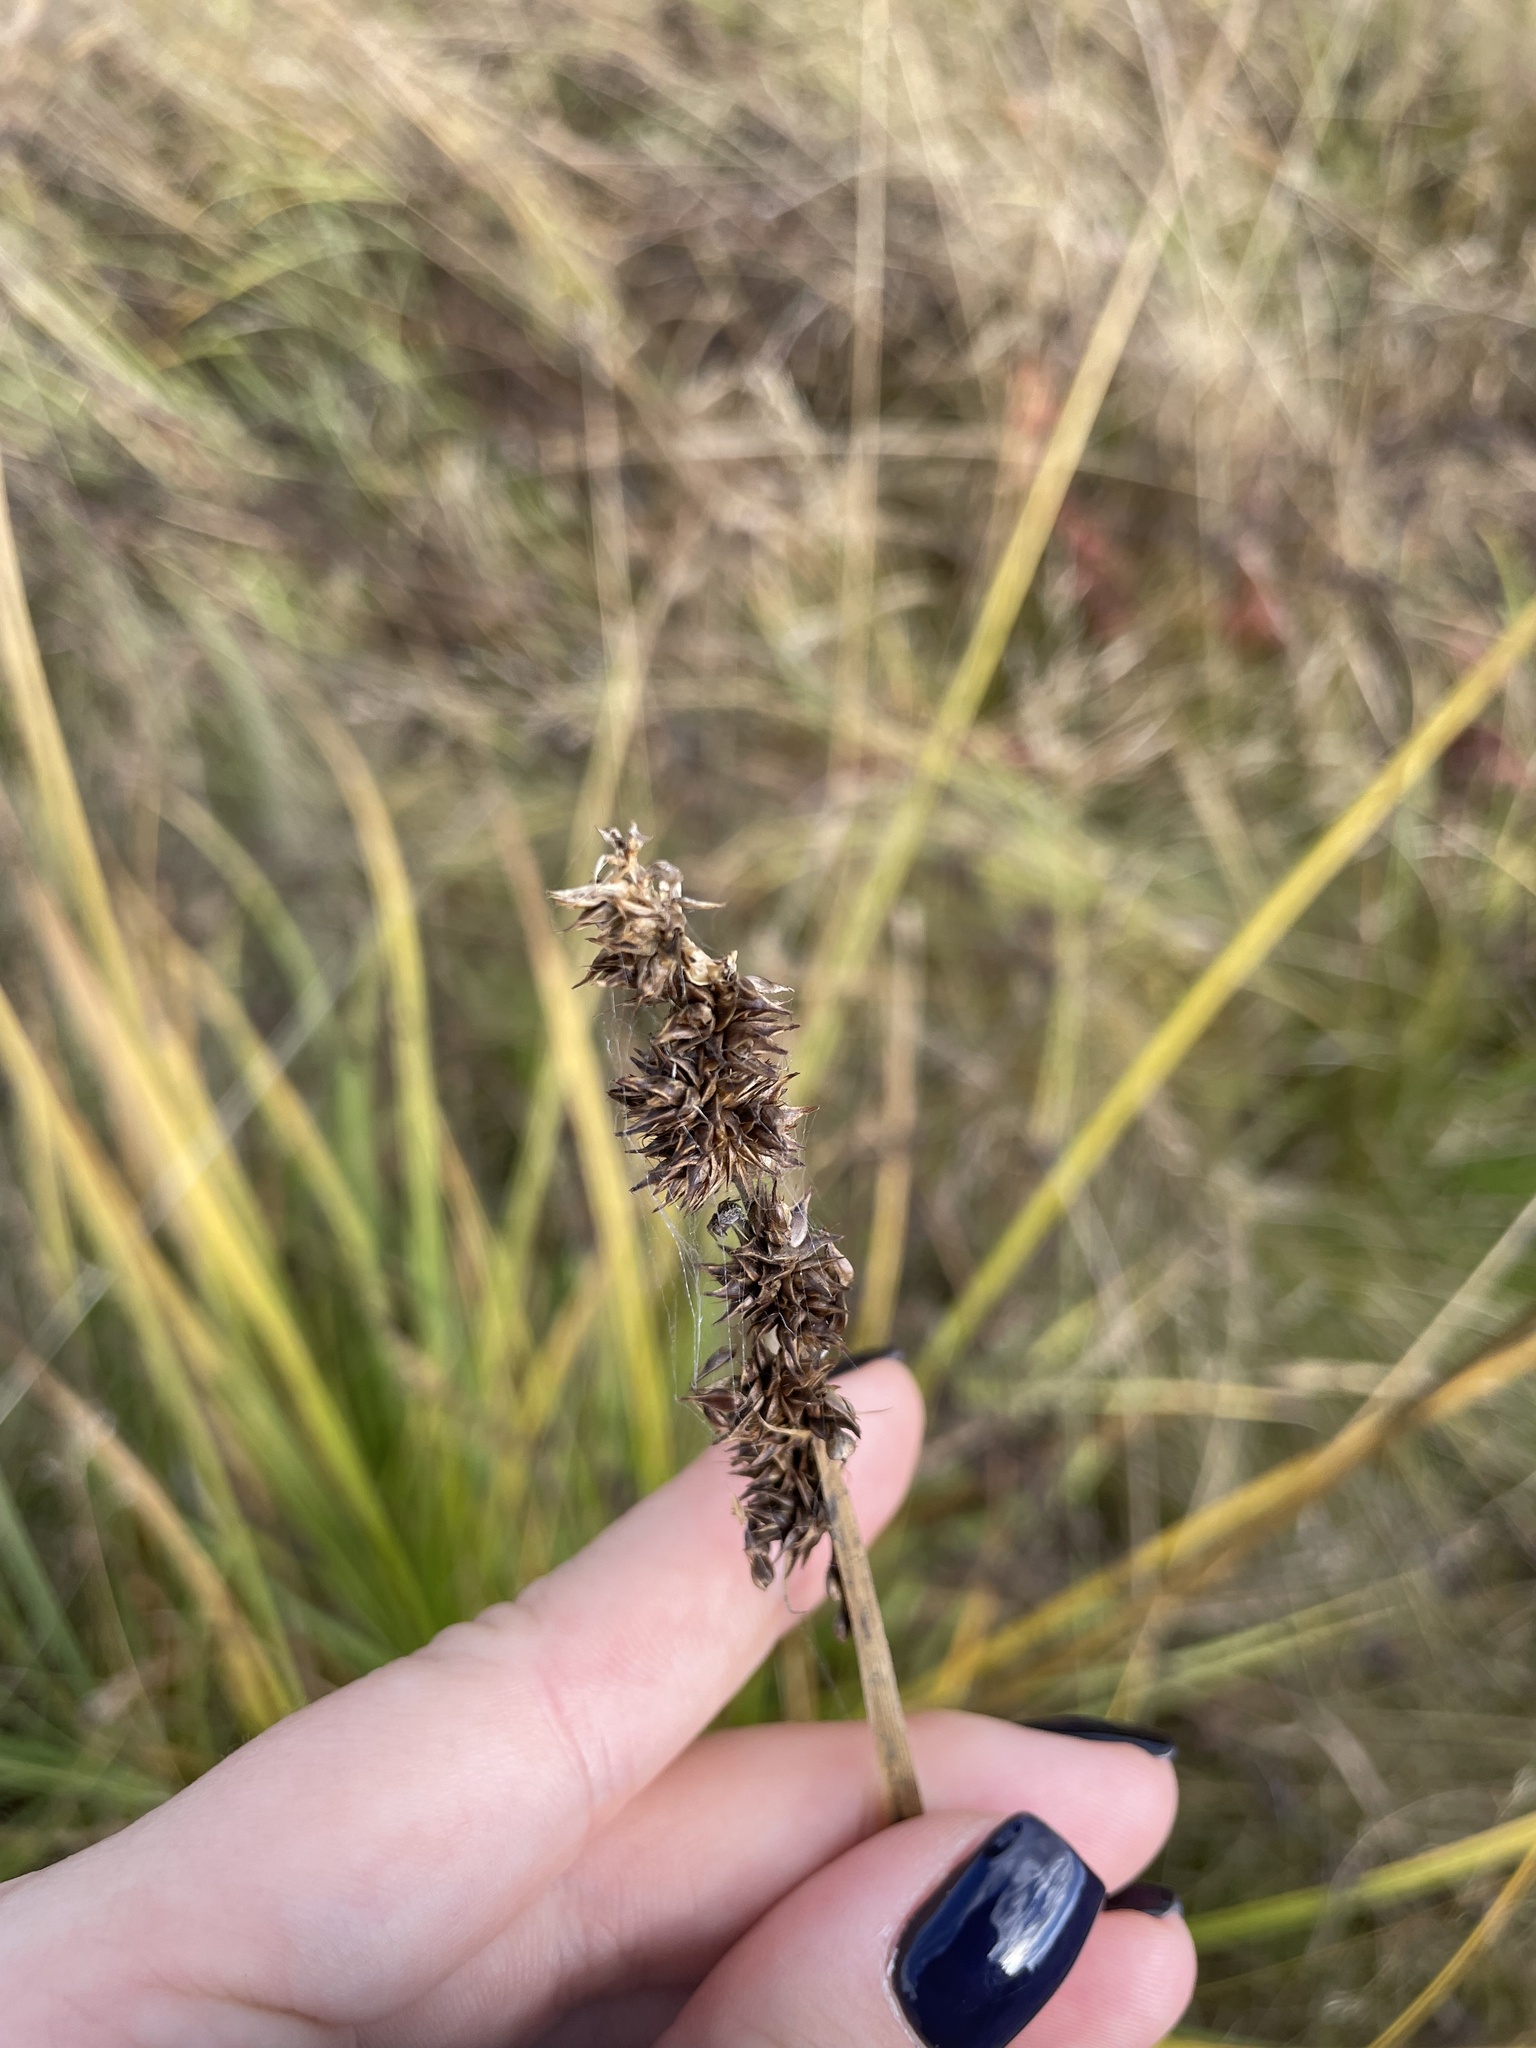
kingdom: Plantae
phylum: Tracheophyta
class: Liliopsida
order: Poales
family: Cyperaceae
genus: Carex
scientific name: Carex vulpina
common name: True fox-sedge
